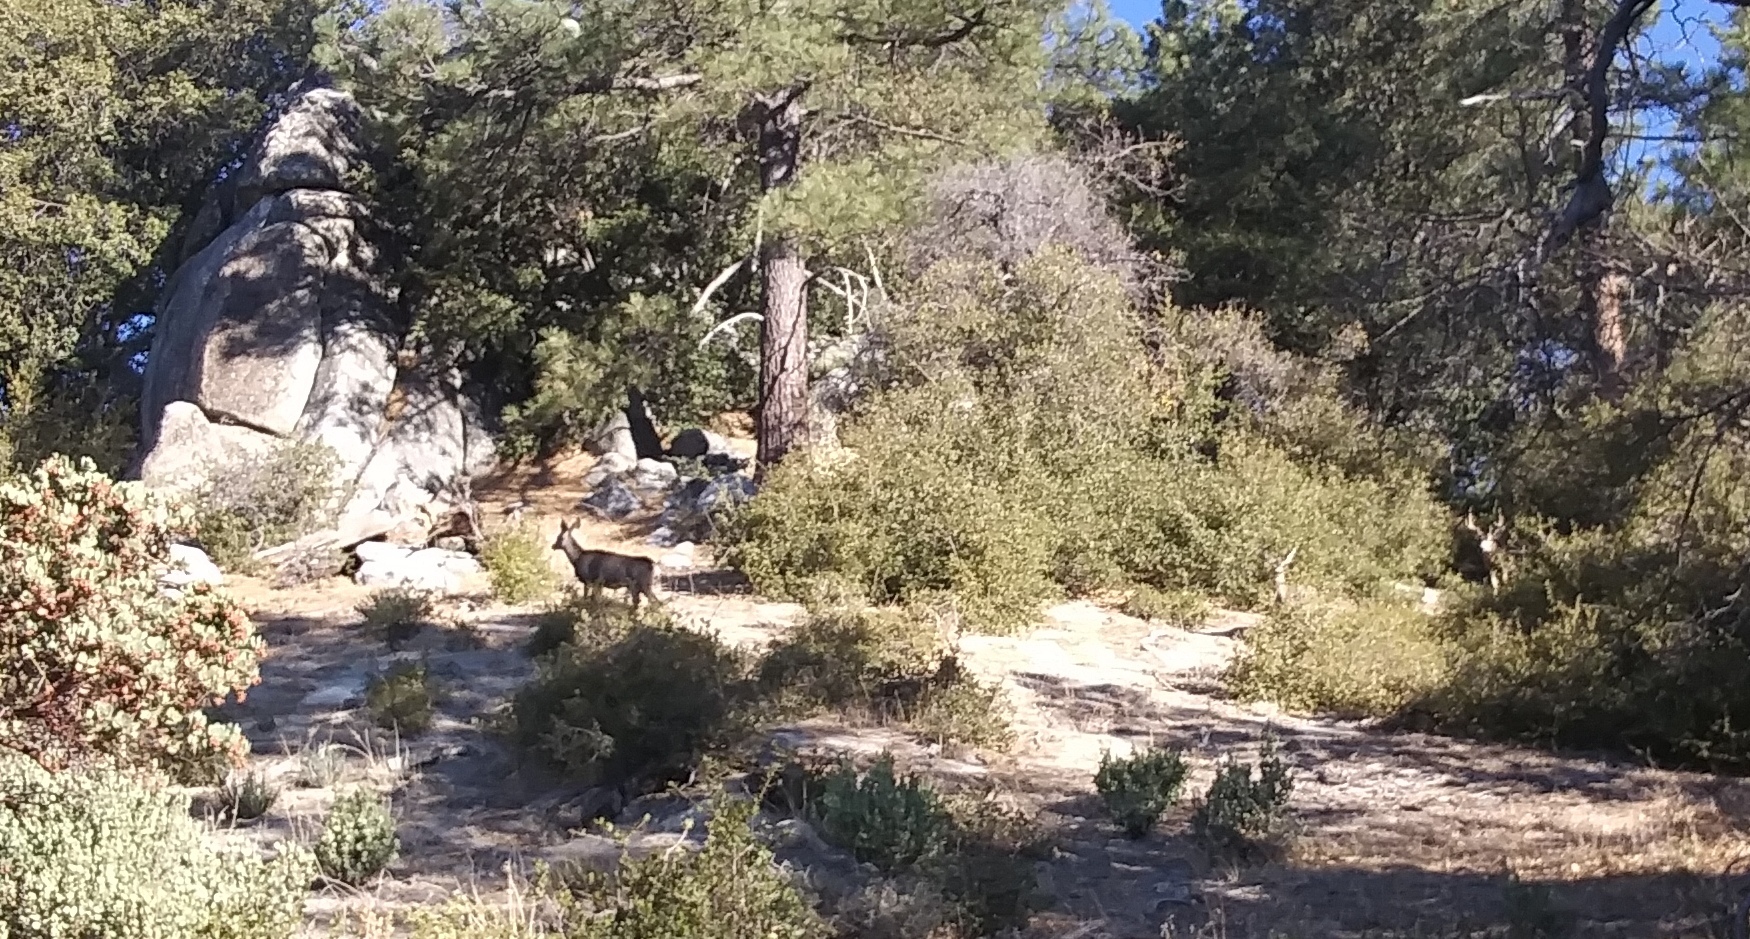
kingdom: Animalia
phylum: Chordata
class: Mammalia
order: Artiodactyla
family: Cervidae
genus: Odocoileus
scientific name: Odocoileus hemionus
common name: Mule deer
